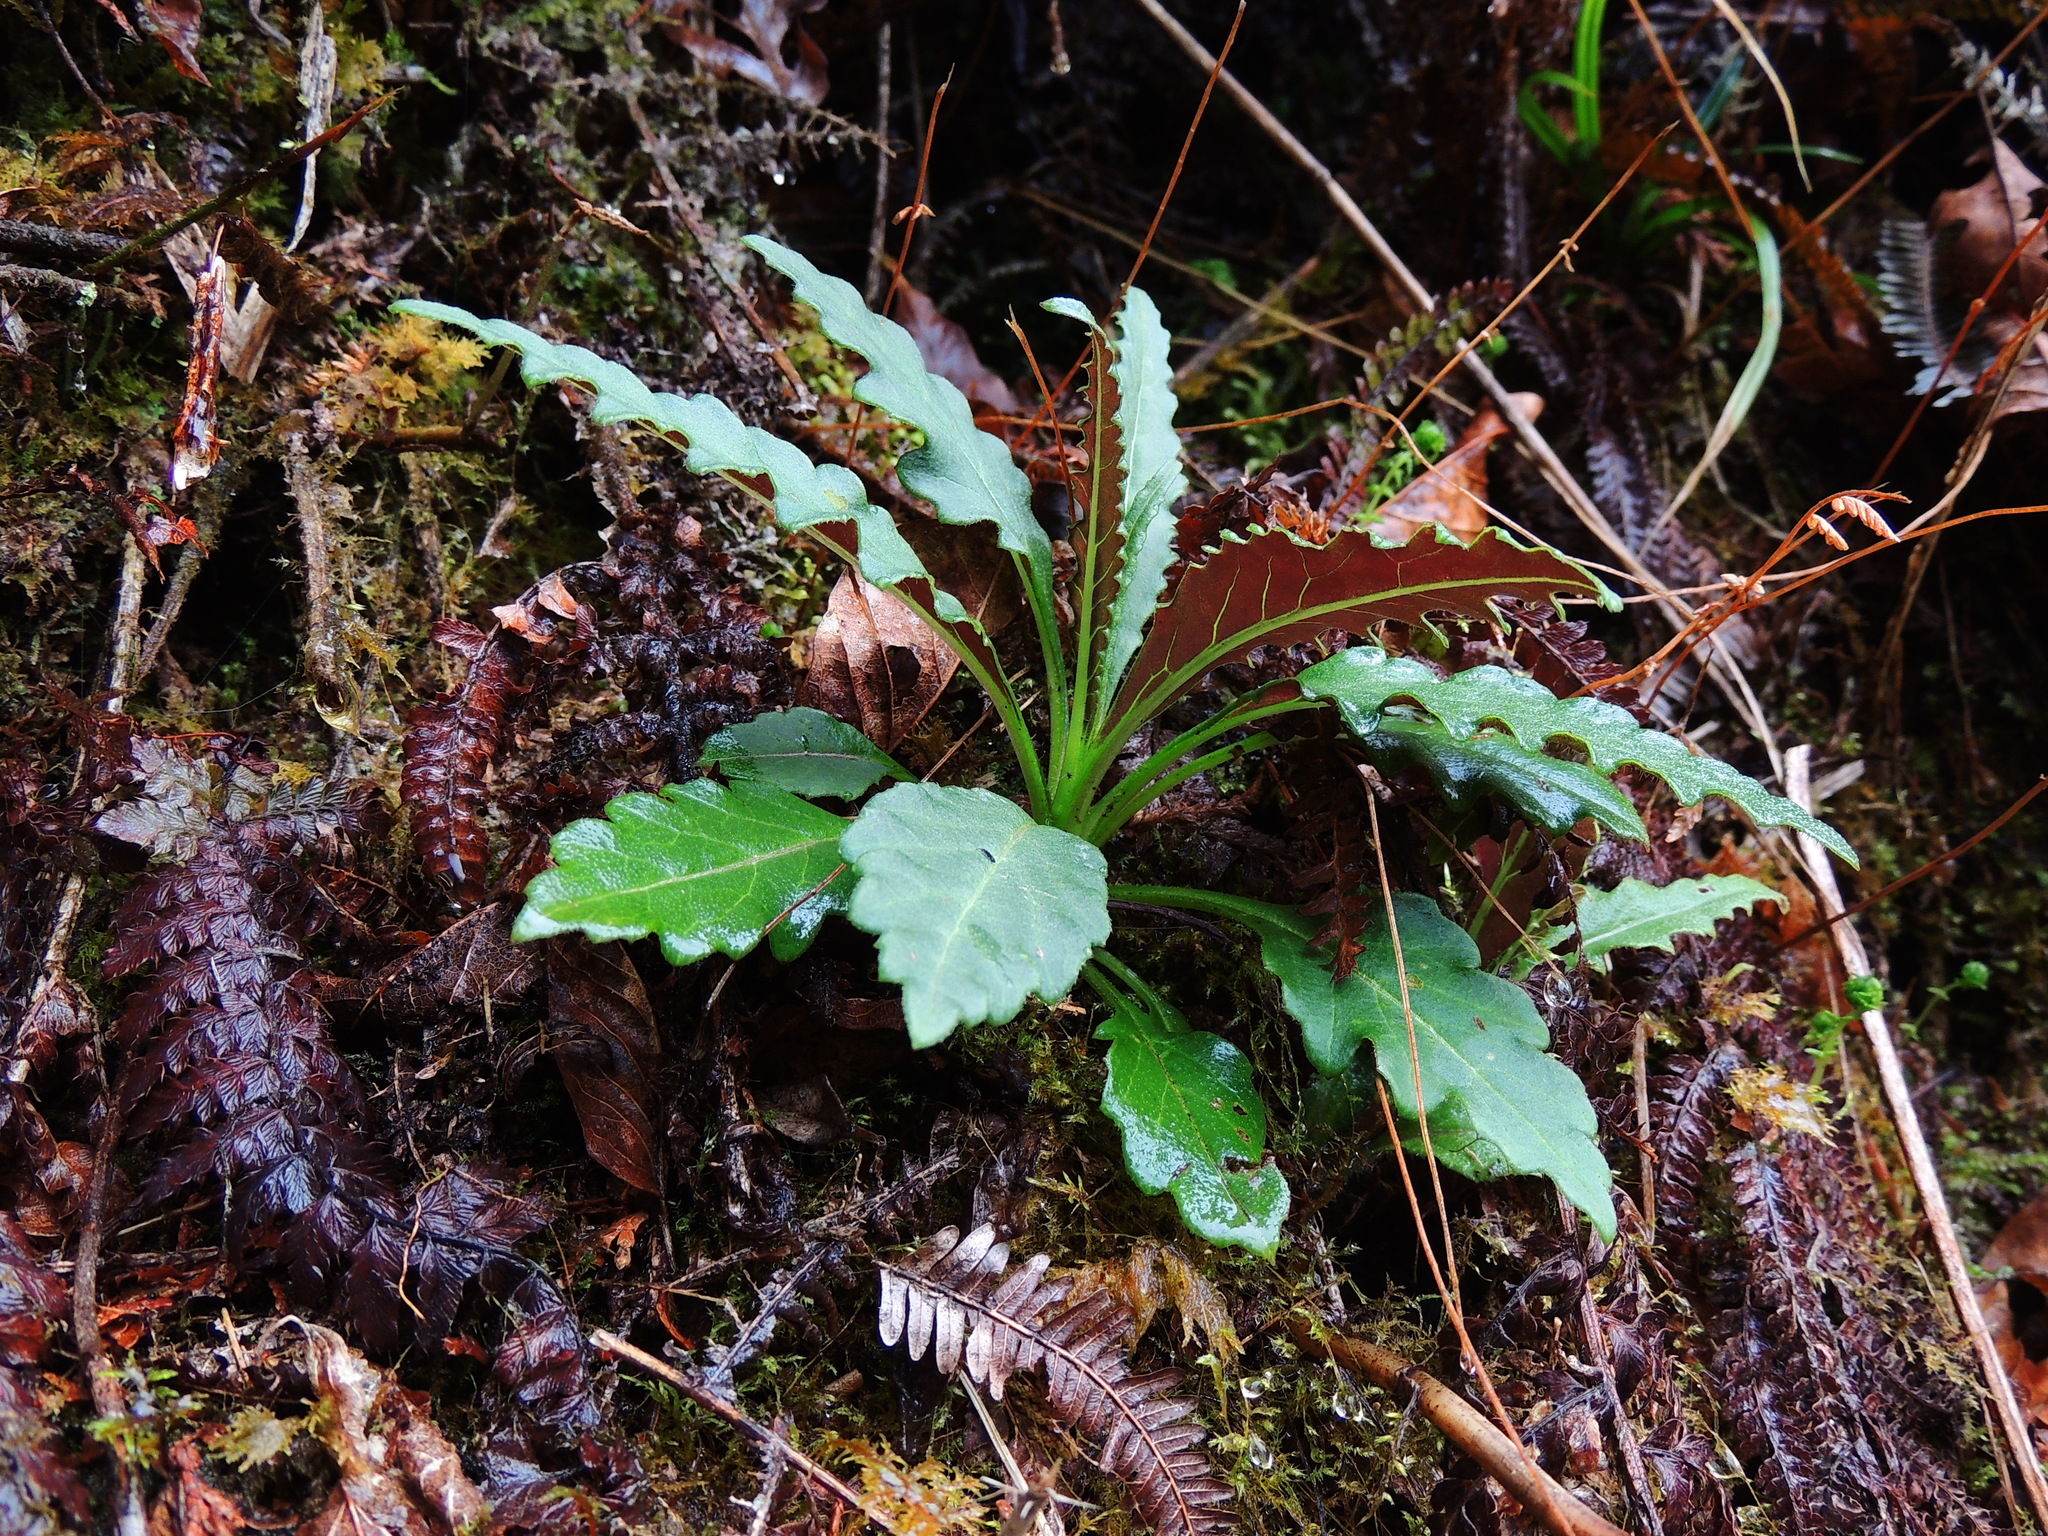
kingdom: Plantae
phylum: Tracheophyta
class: Magnoliopsida
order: Asterales
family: Asteraceae
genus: Jacobaea
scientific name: Jacobaea morrisonensis
